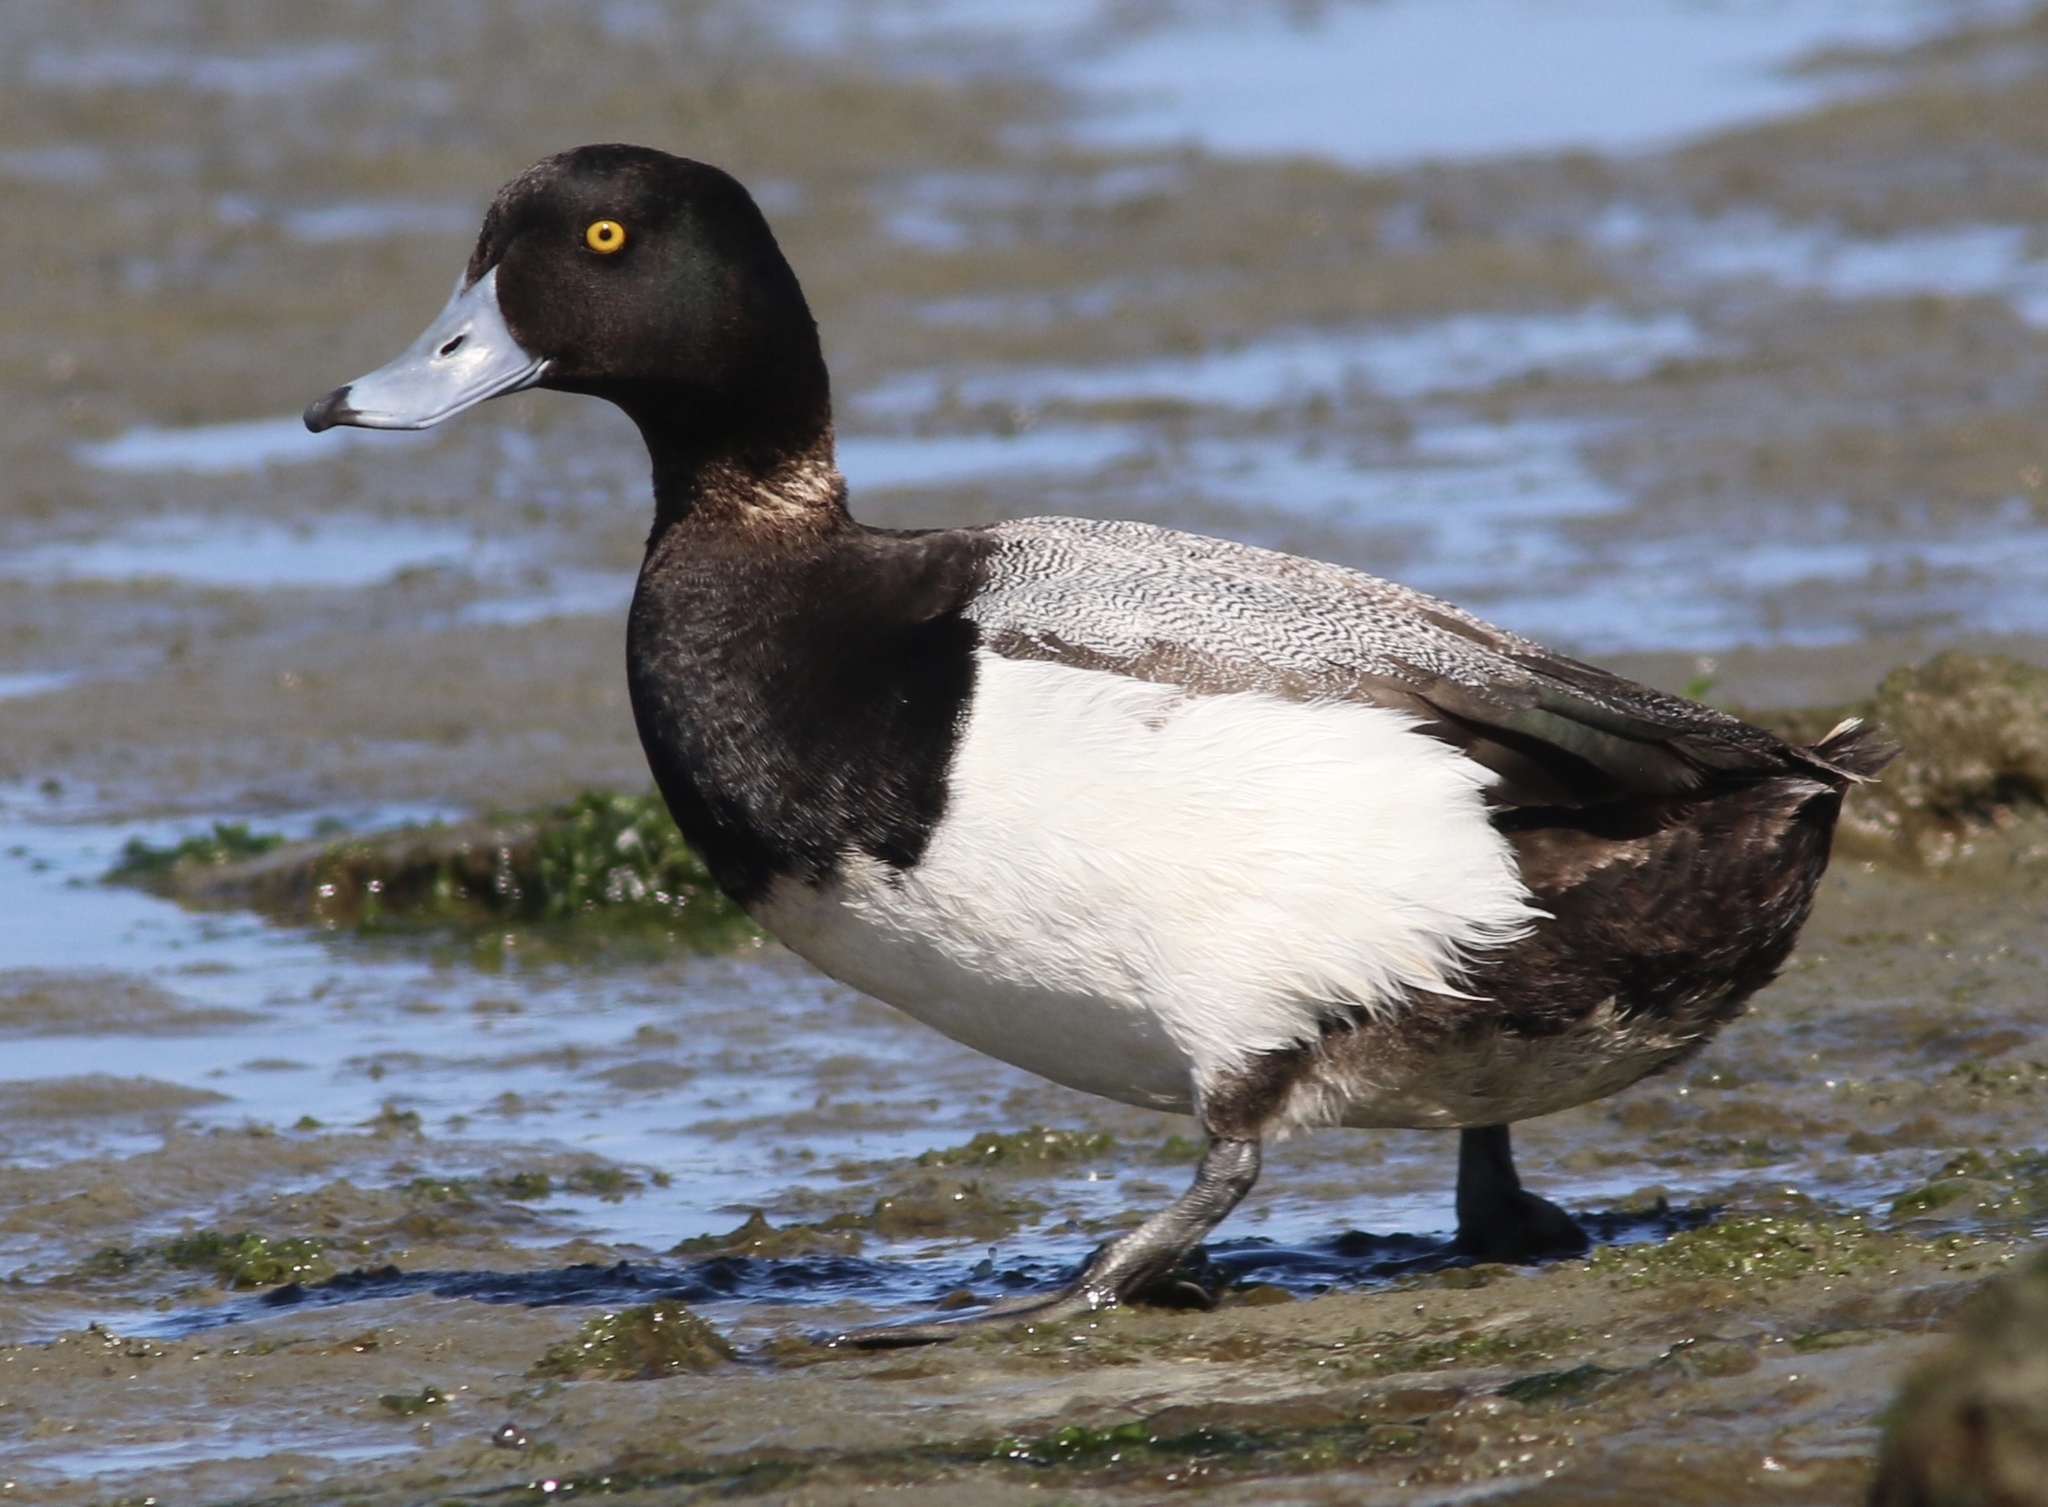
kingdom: Animalia
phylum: Chordata
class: Aves
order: Anseriformes
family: Anatidae
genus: Aythya
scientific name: Aythya marila
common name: Greater scaup
